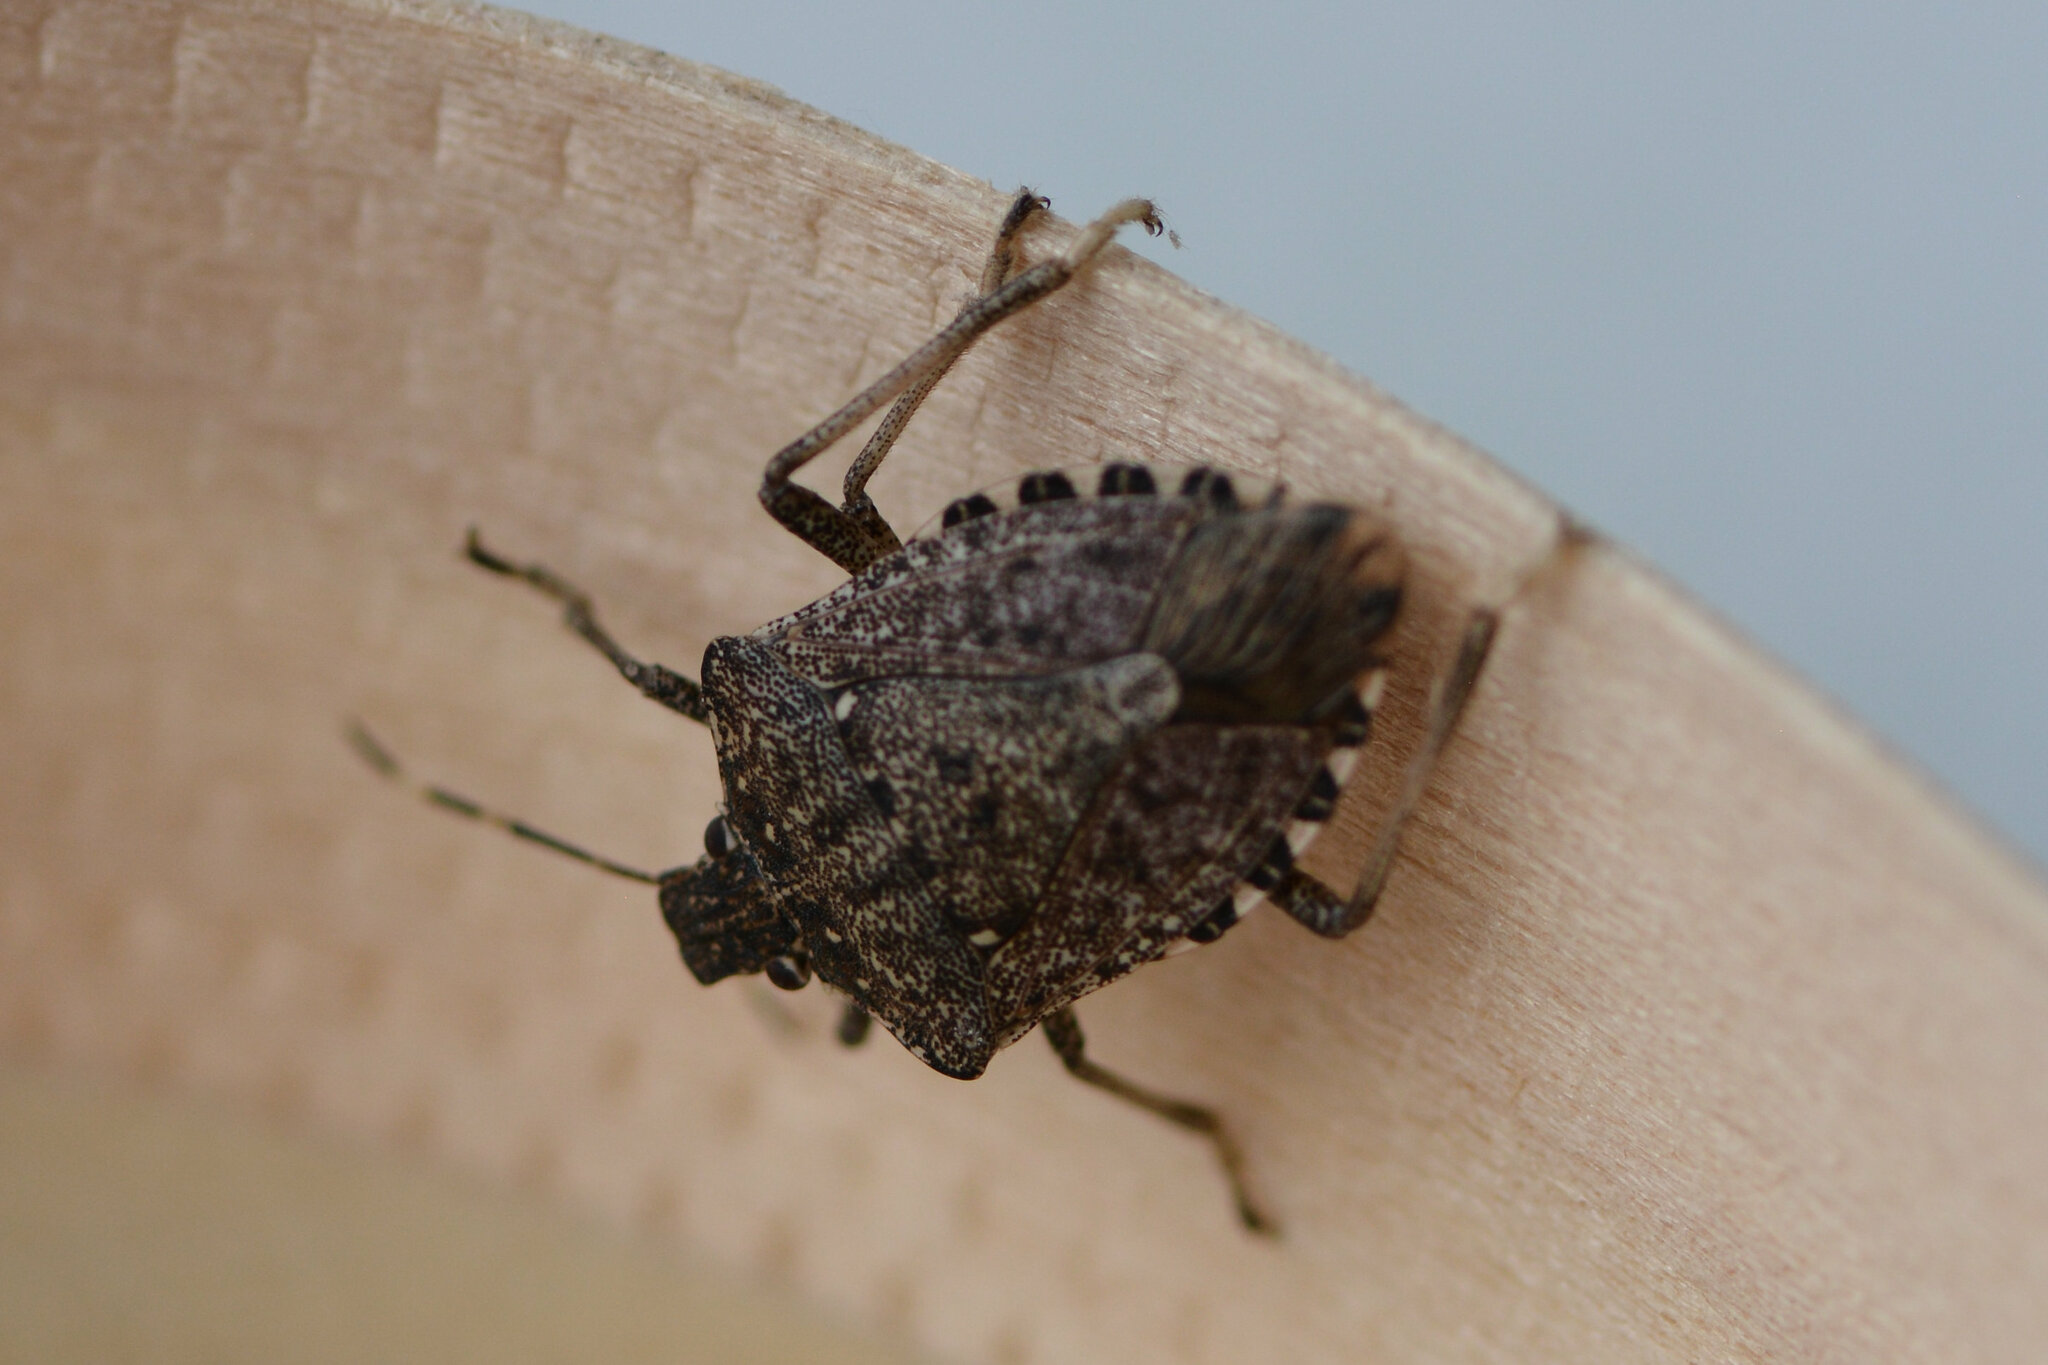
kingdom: Animalia
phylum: Arthropoda
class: Insecta
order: Hemiptera
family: Pentatomidae
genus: Halyomorpha
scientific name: Halyomorpha halys
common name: Brown marmorated stink bug
